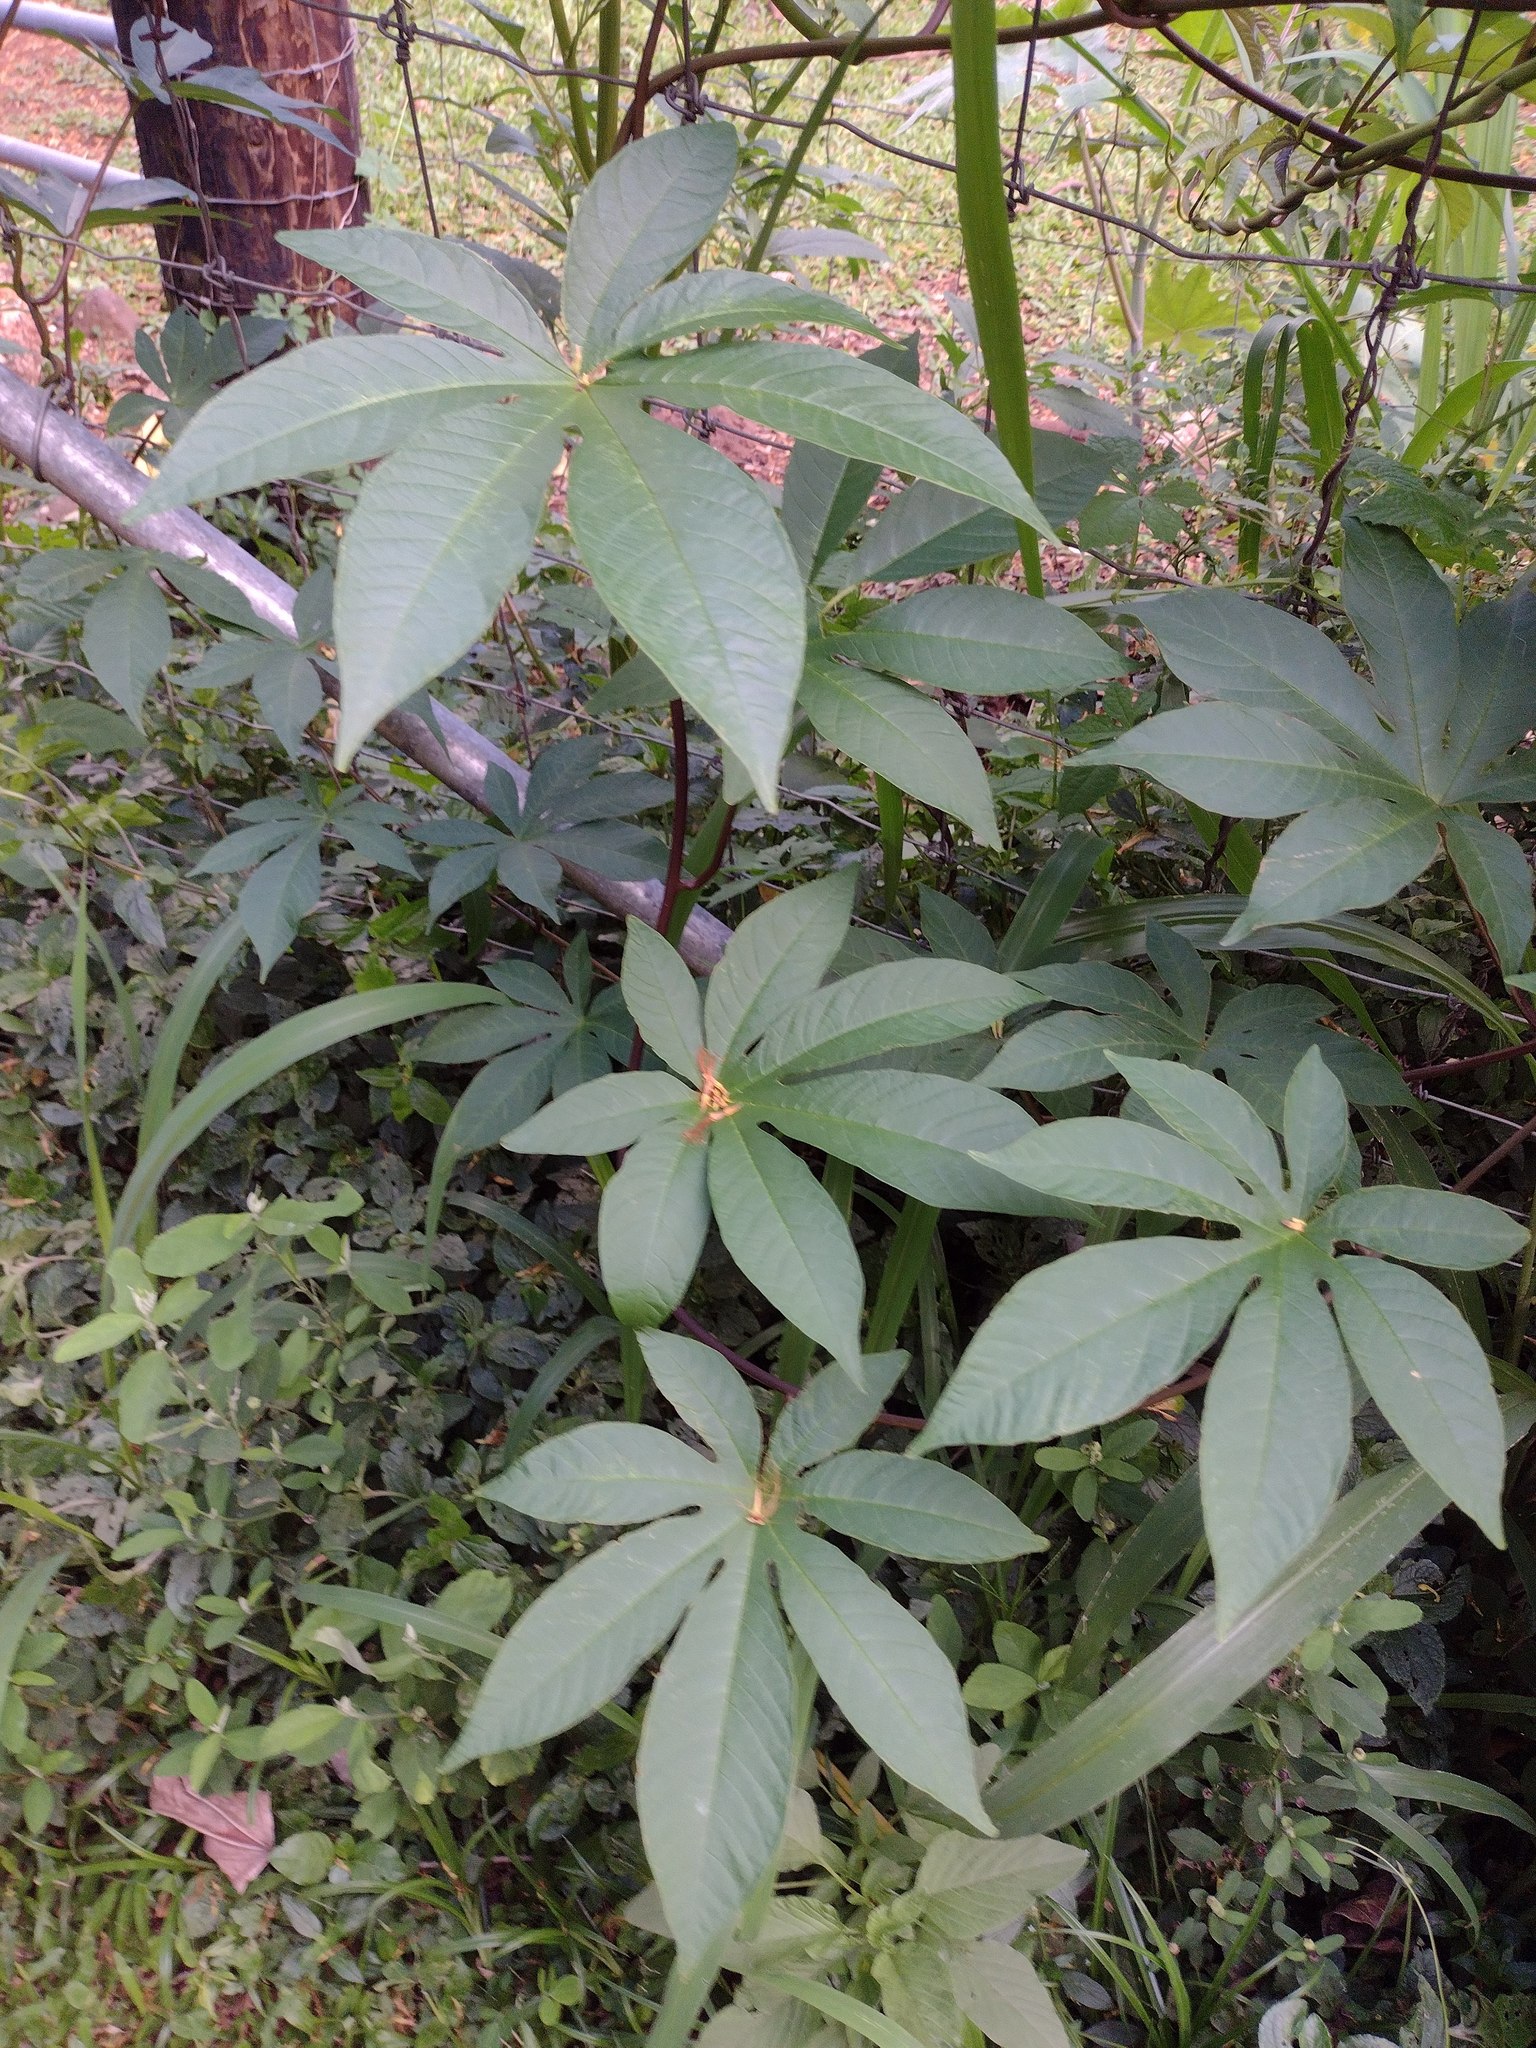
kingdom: Plantae
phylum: Tracheophyta
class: Magnoliopsida
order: Solanales
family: Convolvulaceae
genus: Distimake
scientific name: Distimake tuberosus
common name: Spanish arborvine
